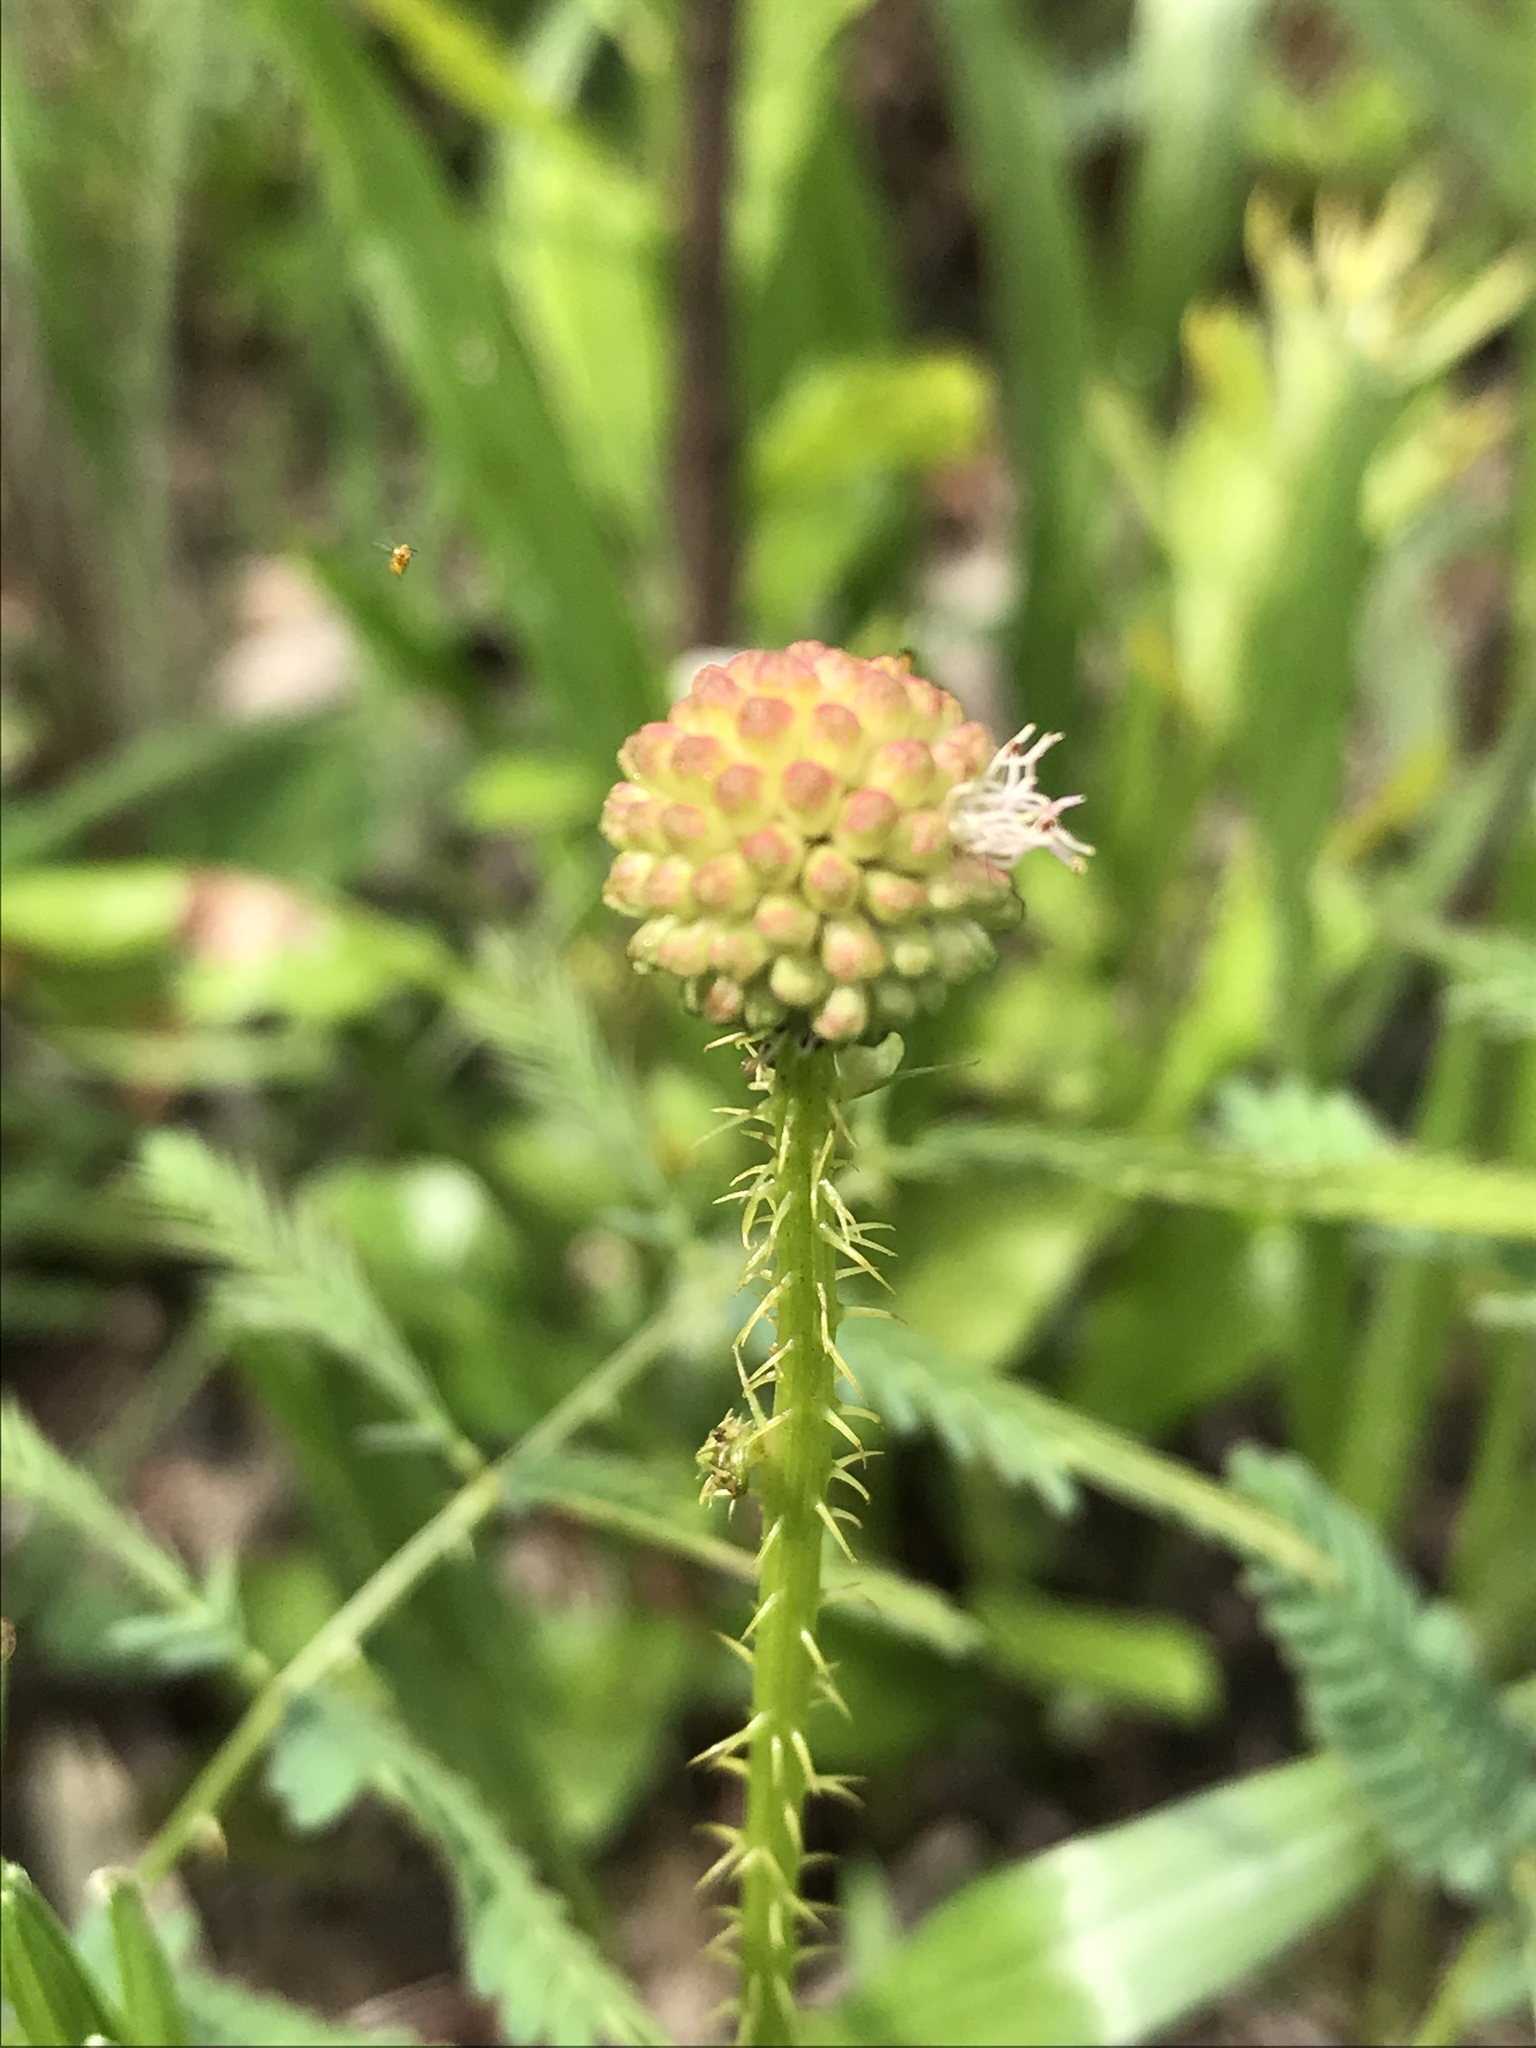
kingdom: Plantae
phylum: Tracheophyta
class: Magnoliopsida
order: Fabales
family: Fabaceae
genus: Mimosa
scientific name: Mimosa quadrivalvis
